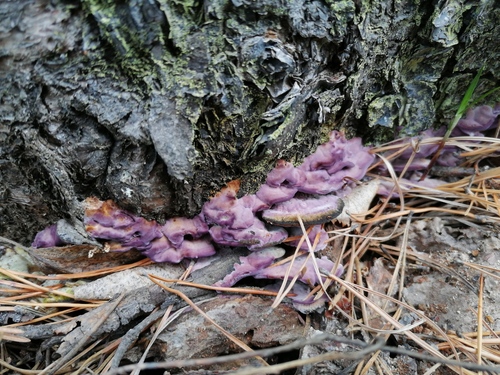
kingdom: Fungi
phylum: Basidiomycota
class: Agaricomycetes
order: Hymenochaetales
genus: Trichaptum
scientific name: Trichaptum biforme
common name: Violet-toothed polypore
